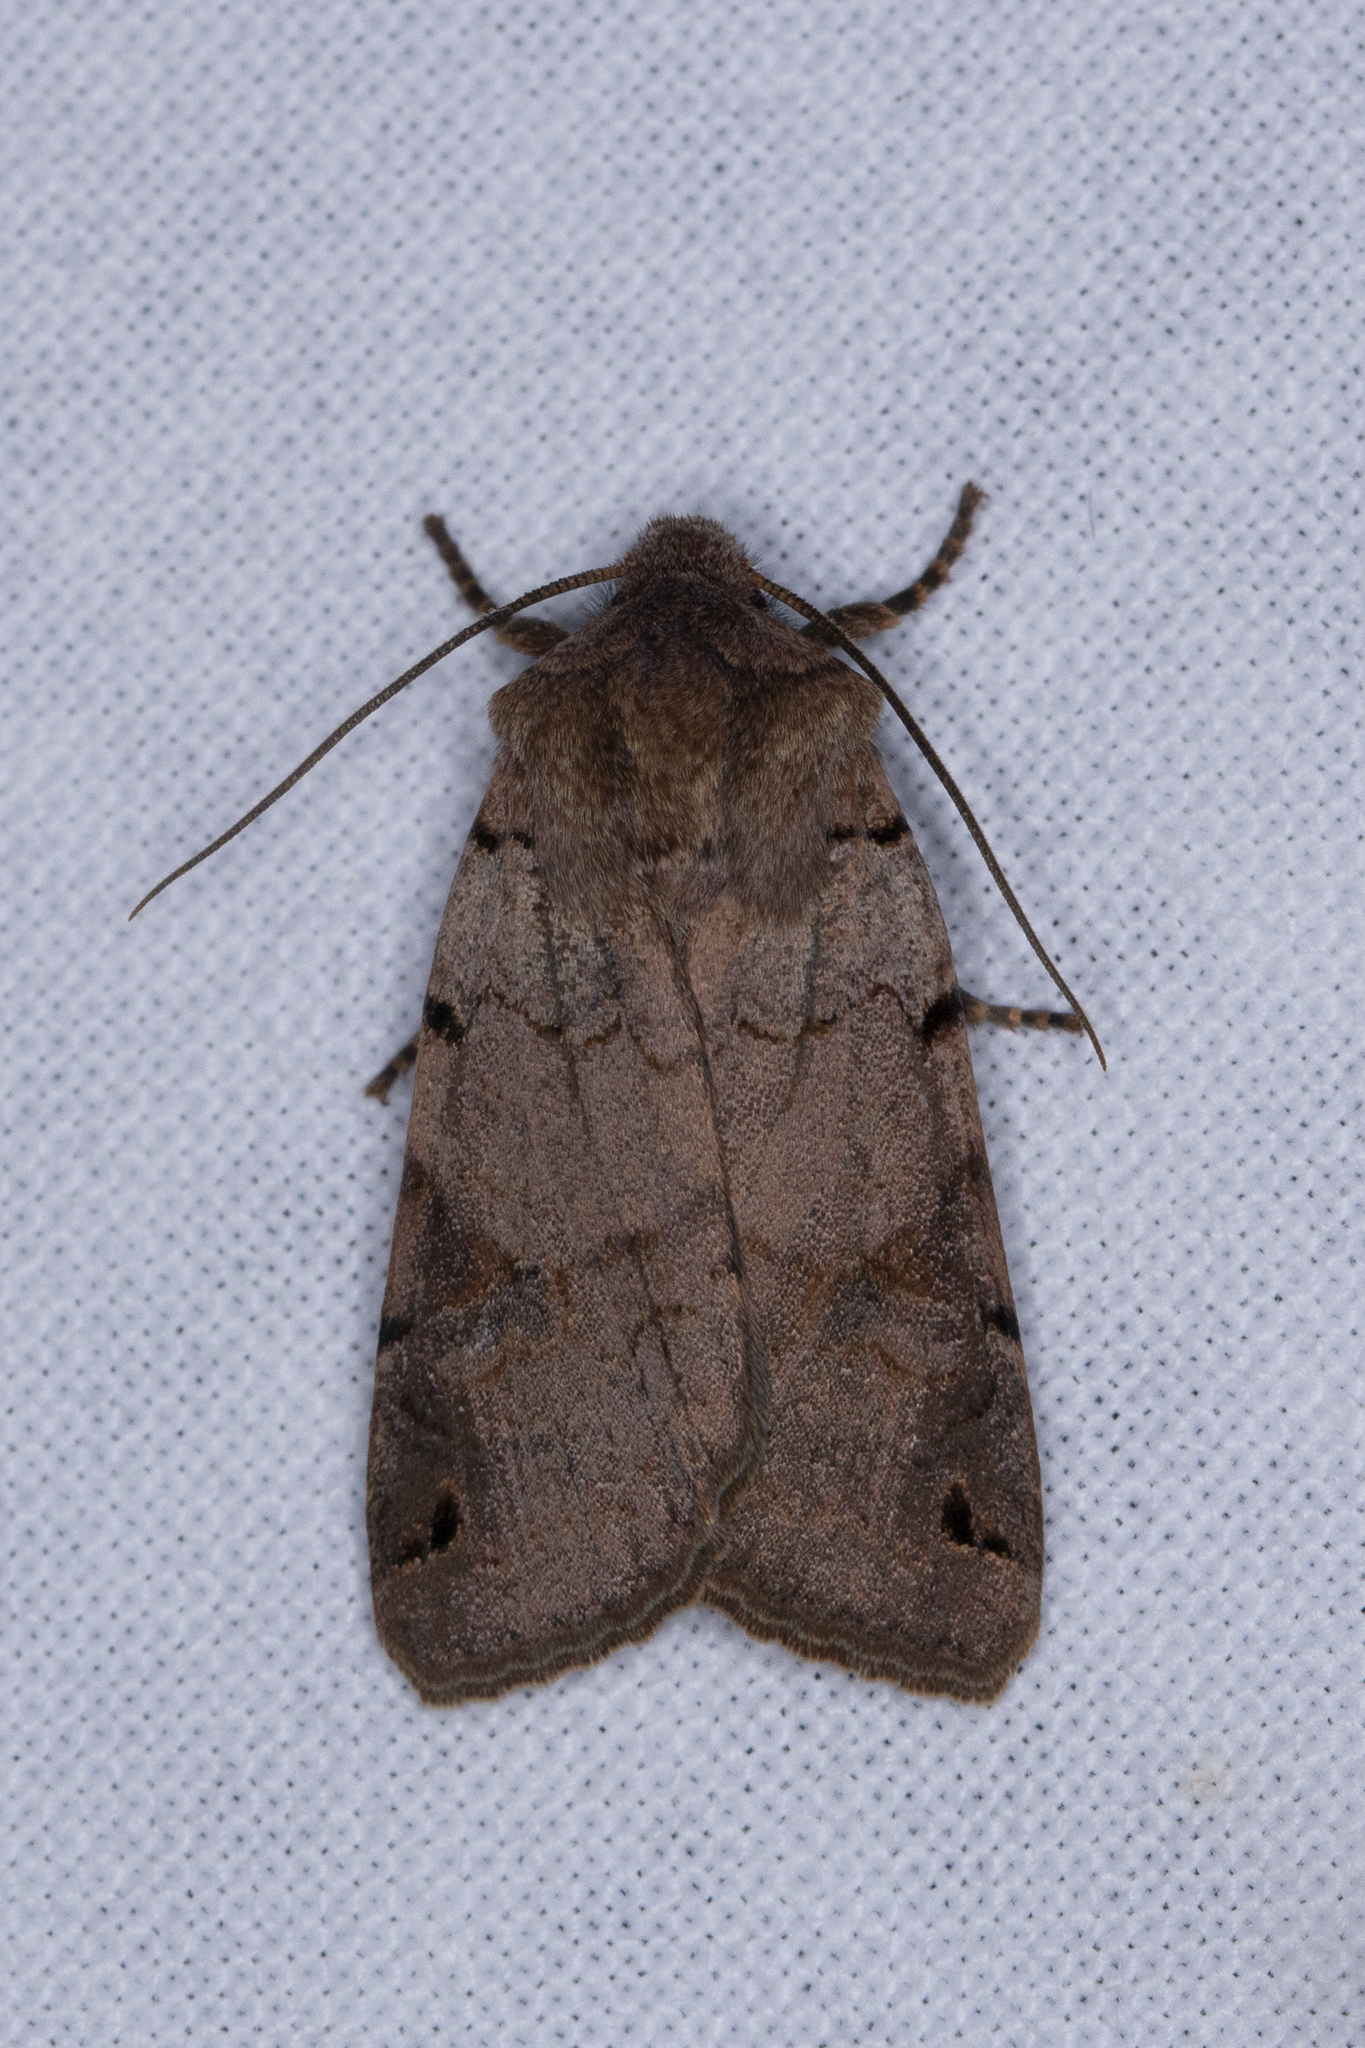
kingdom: Animalia
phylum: Arthropoda
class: Insecta
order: Lepidoptera
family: Noctuidae
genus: Agrochola
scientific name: Agrochola litura
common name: Brown-spot pinion
